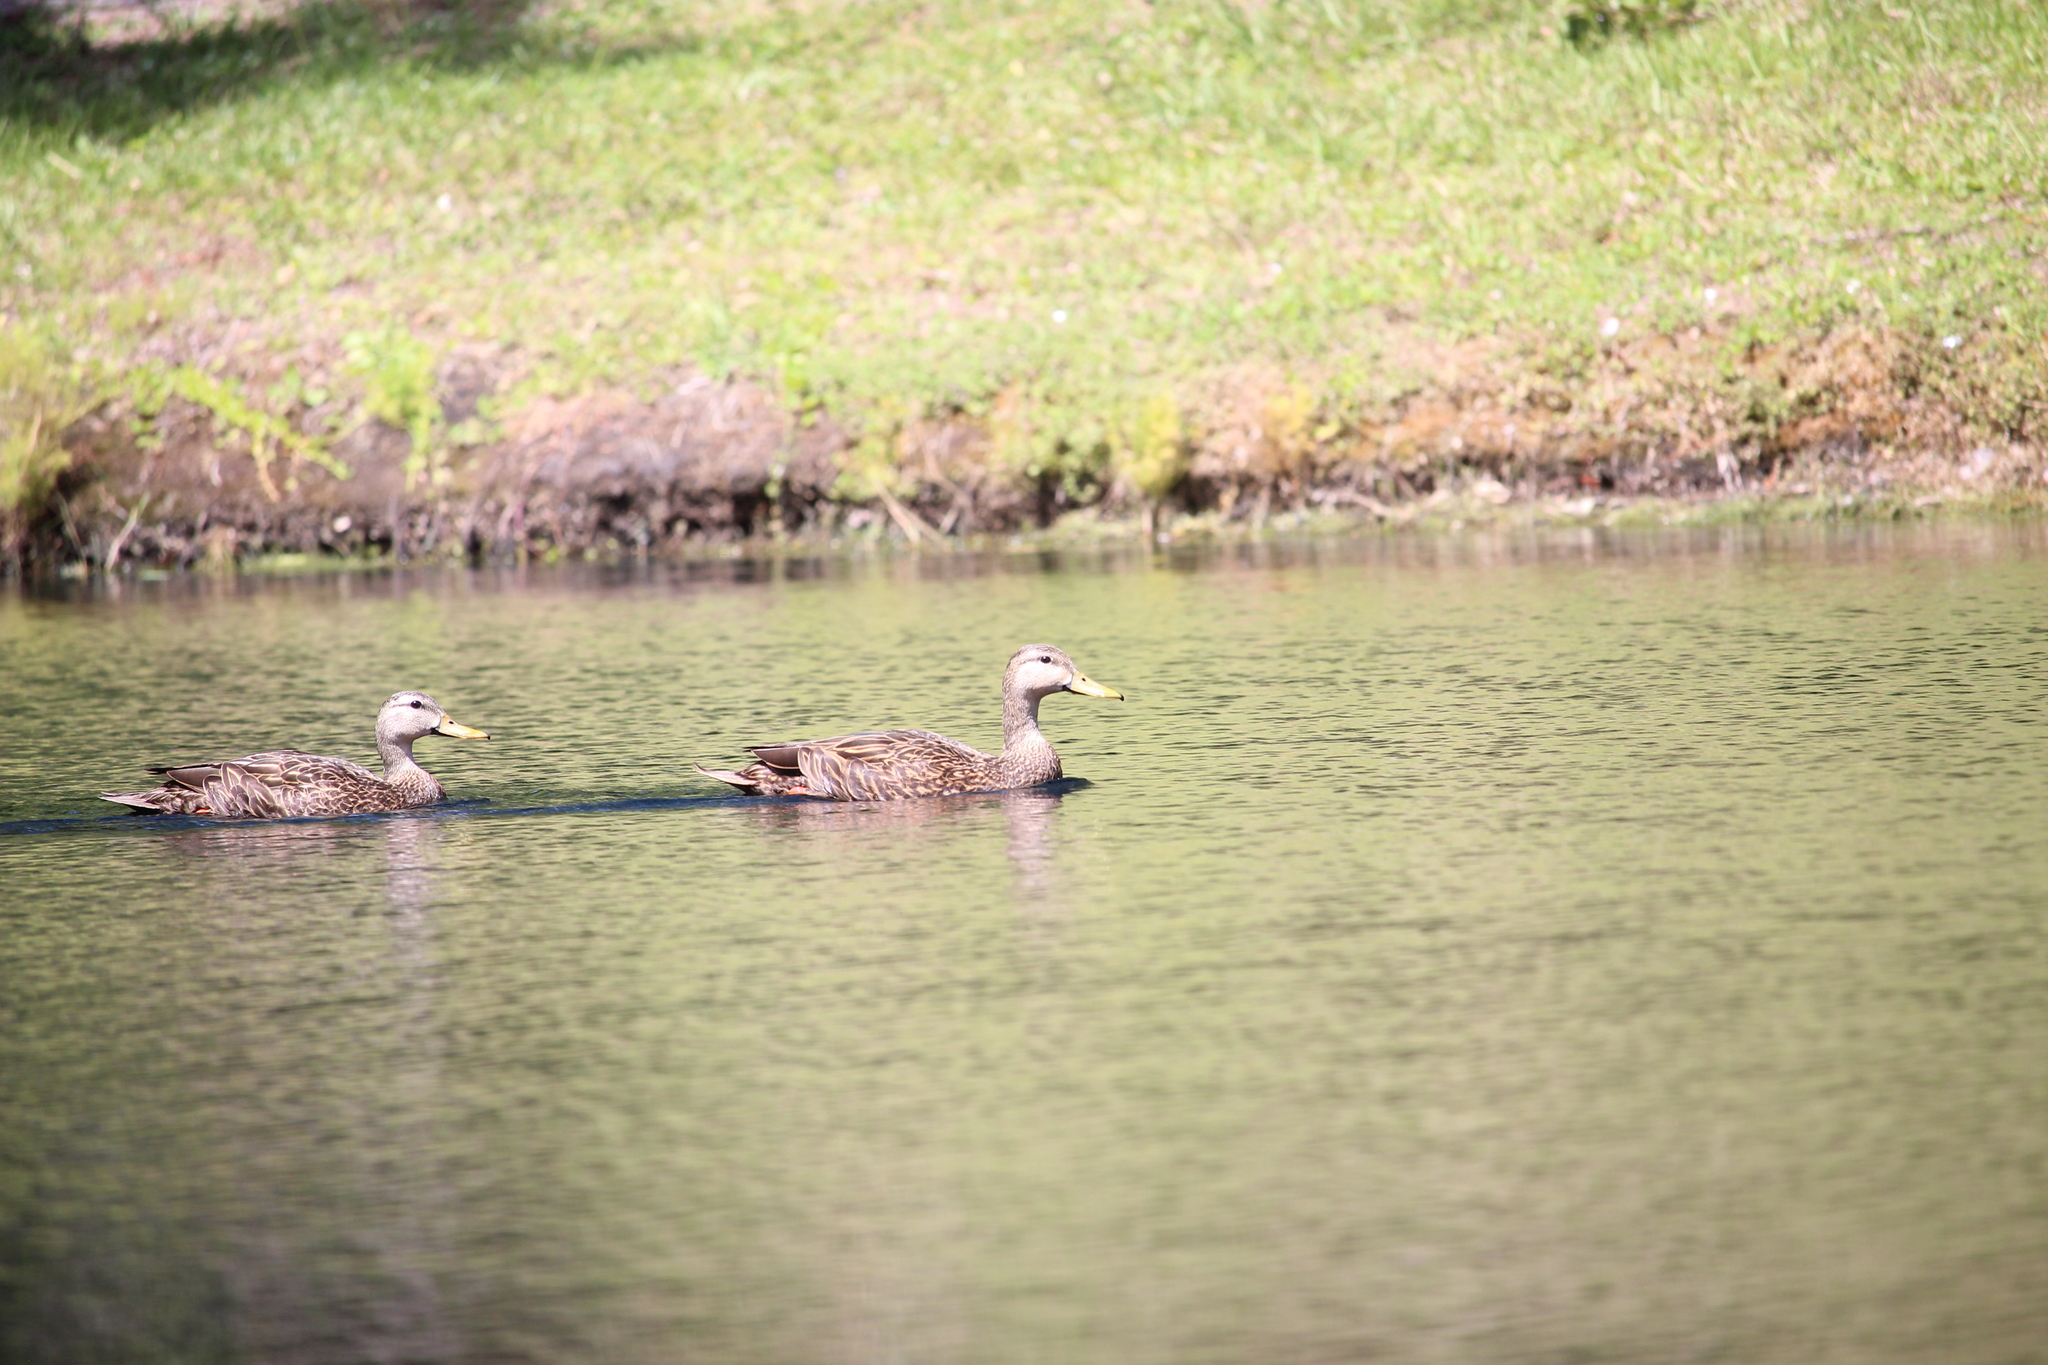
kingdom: Animalia
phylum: Chordata
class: Aves
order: Anseriformes
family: Anatidae
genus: Anas
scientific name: Anas
